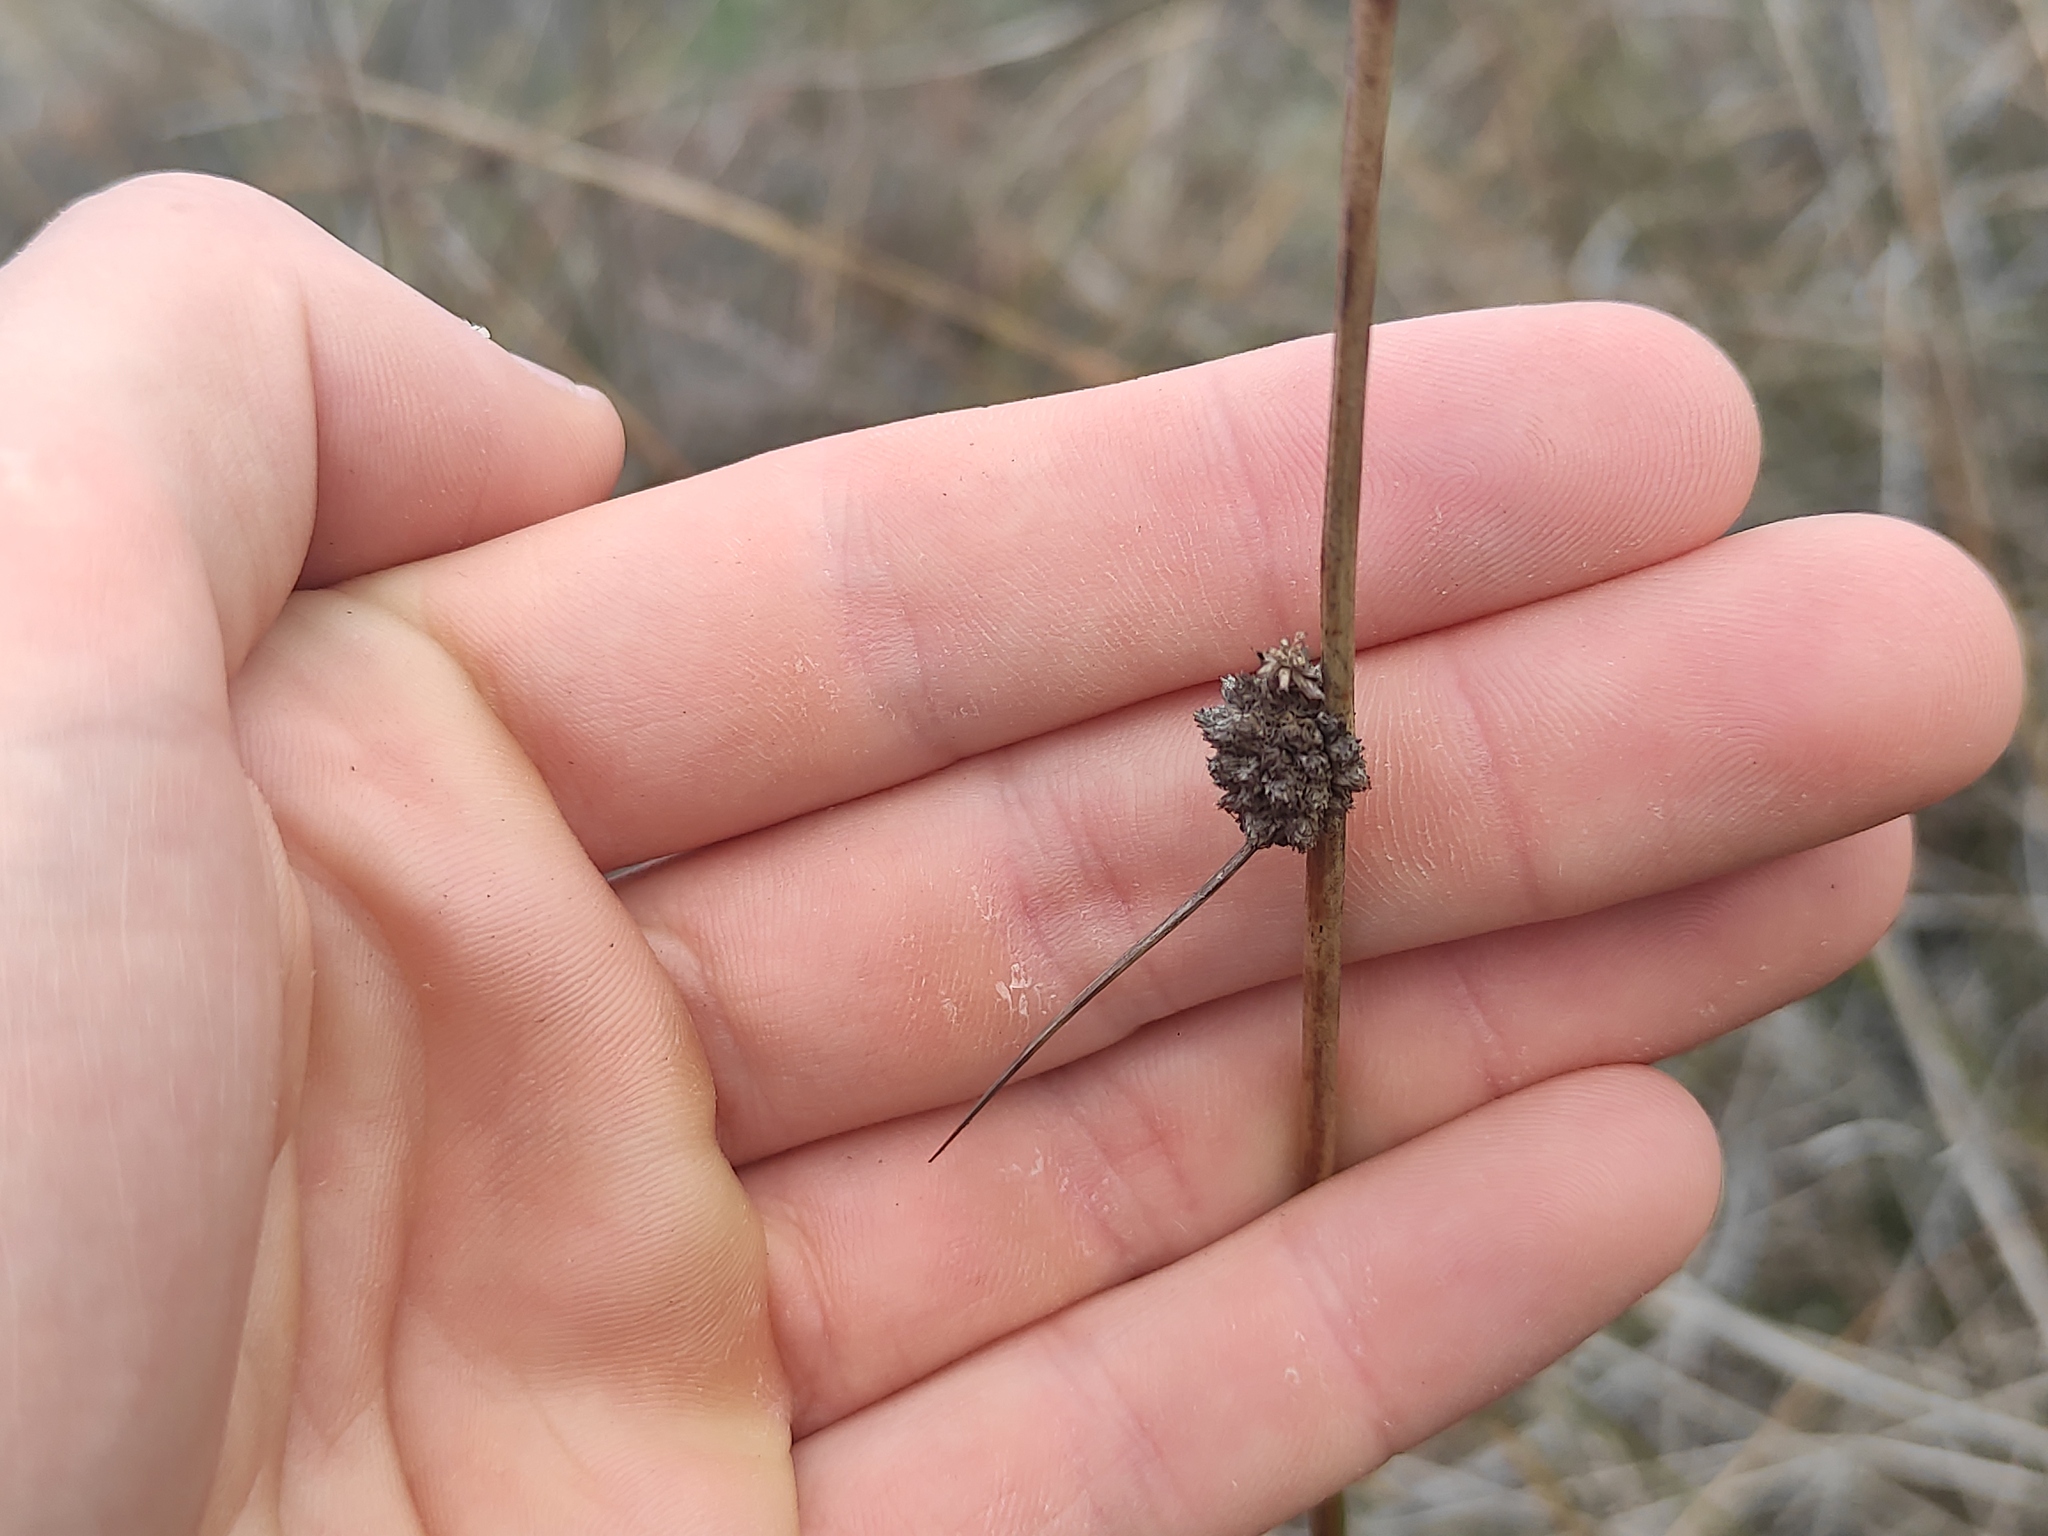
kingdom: Plantae
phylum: Tracheophyta
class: Liliopsida
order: Poales
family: Cyperaceae
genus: Scirpoides
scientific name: Scirpoides holoschoenus
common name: Round-headed club-rush
